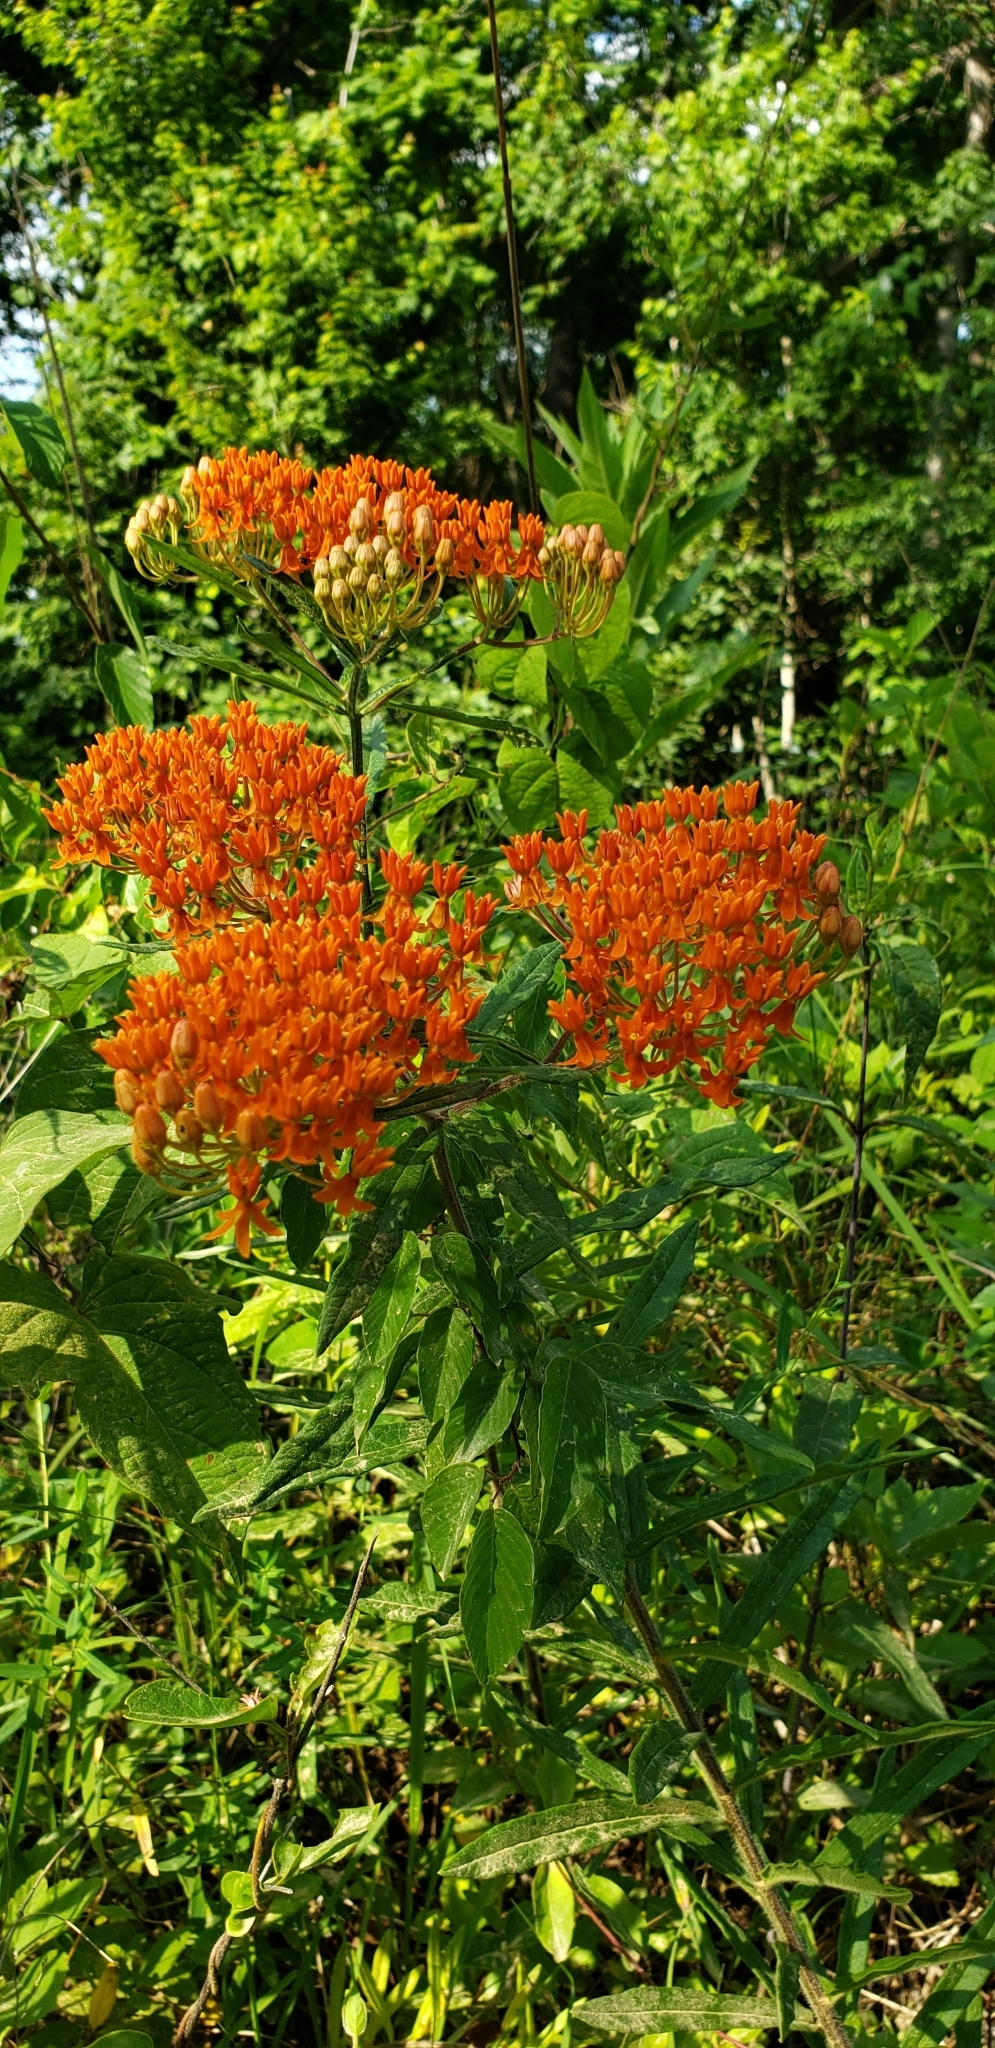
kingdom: Plantae
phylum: Tracheophyta
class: Magnoliopsida
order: Gentianales
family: Apocynaceae
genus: Asclepias
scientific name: Asclepias tuberosa
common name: Butterfly milkweed
